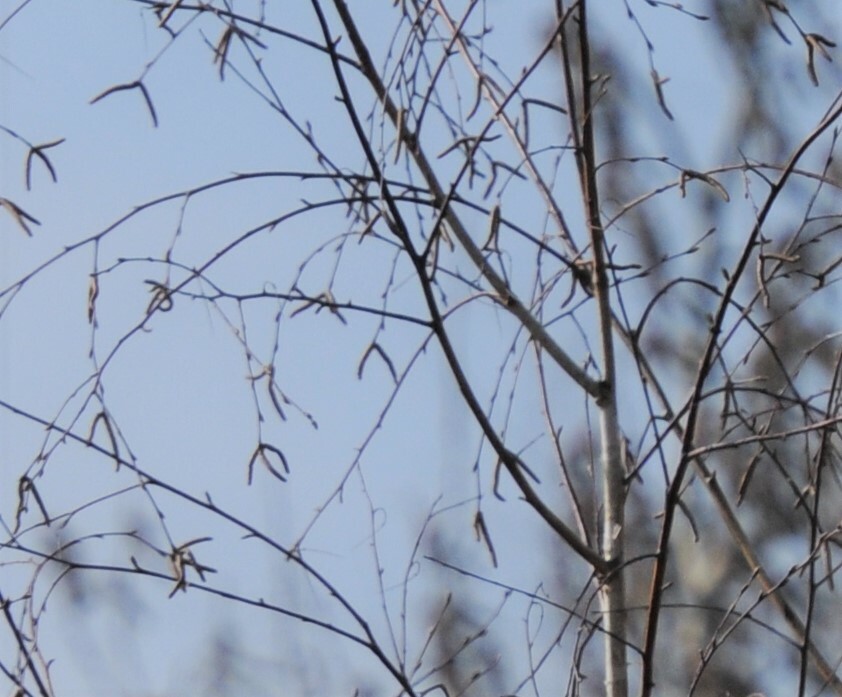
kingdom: Plantae
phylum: Tracheophyta
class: Magnoliopsida
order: Fagales
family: Betulaceae
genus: Betula
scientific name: Betula pendula
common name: Silver birch
